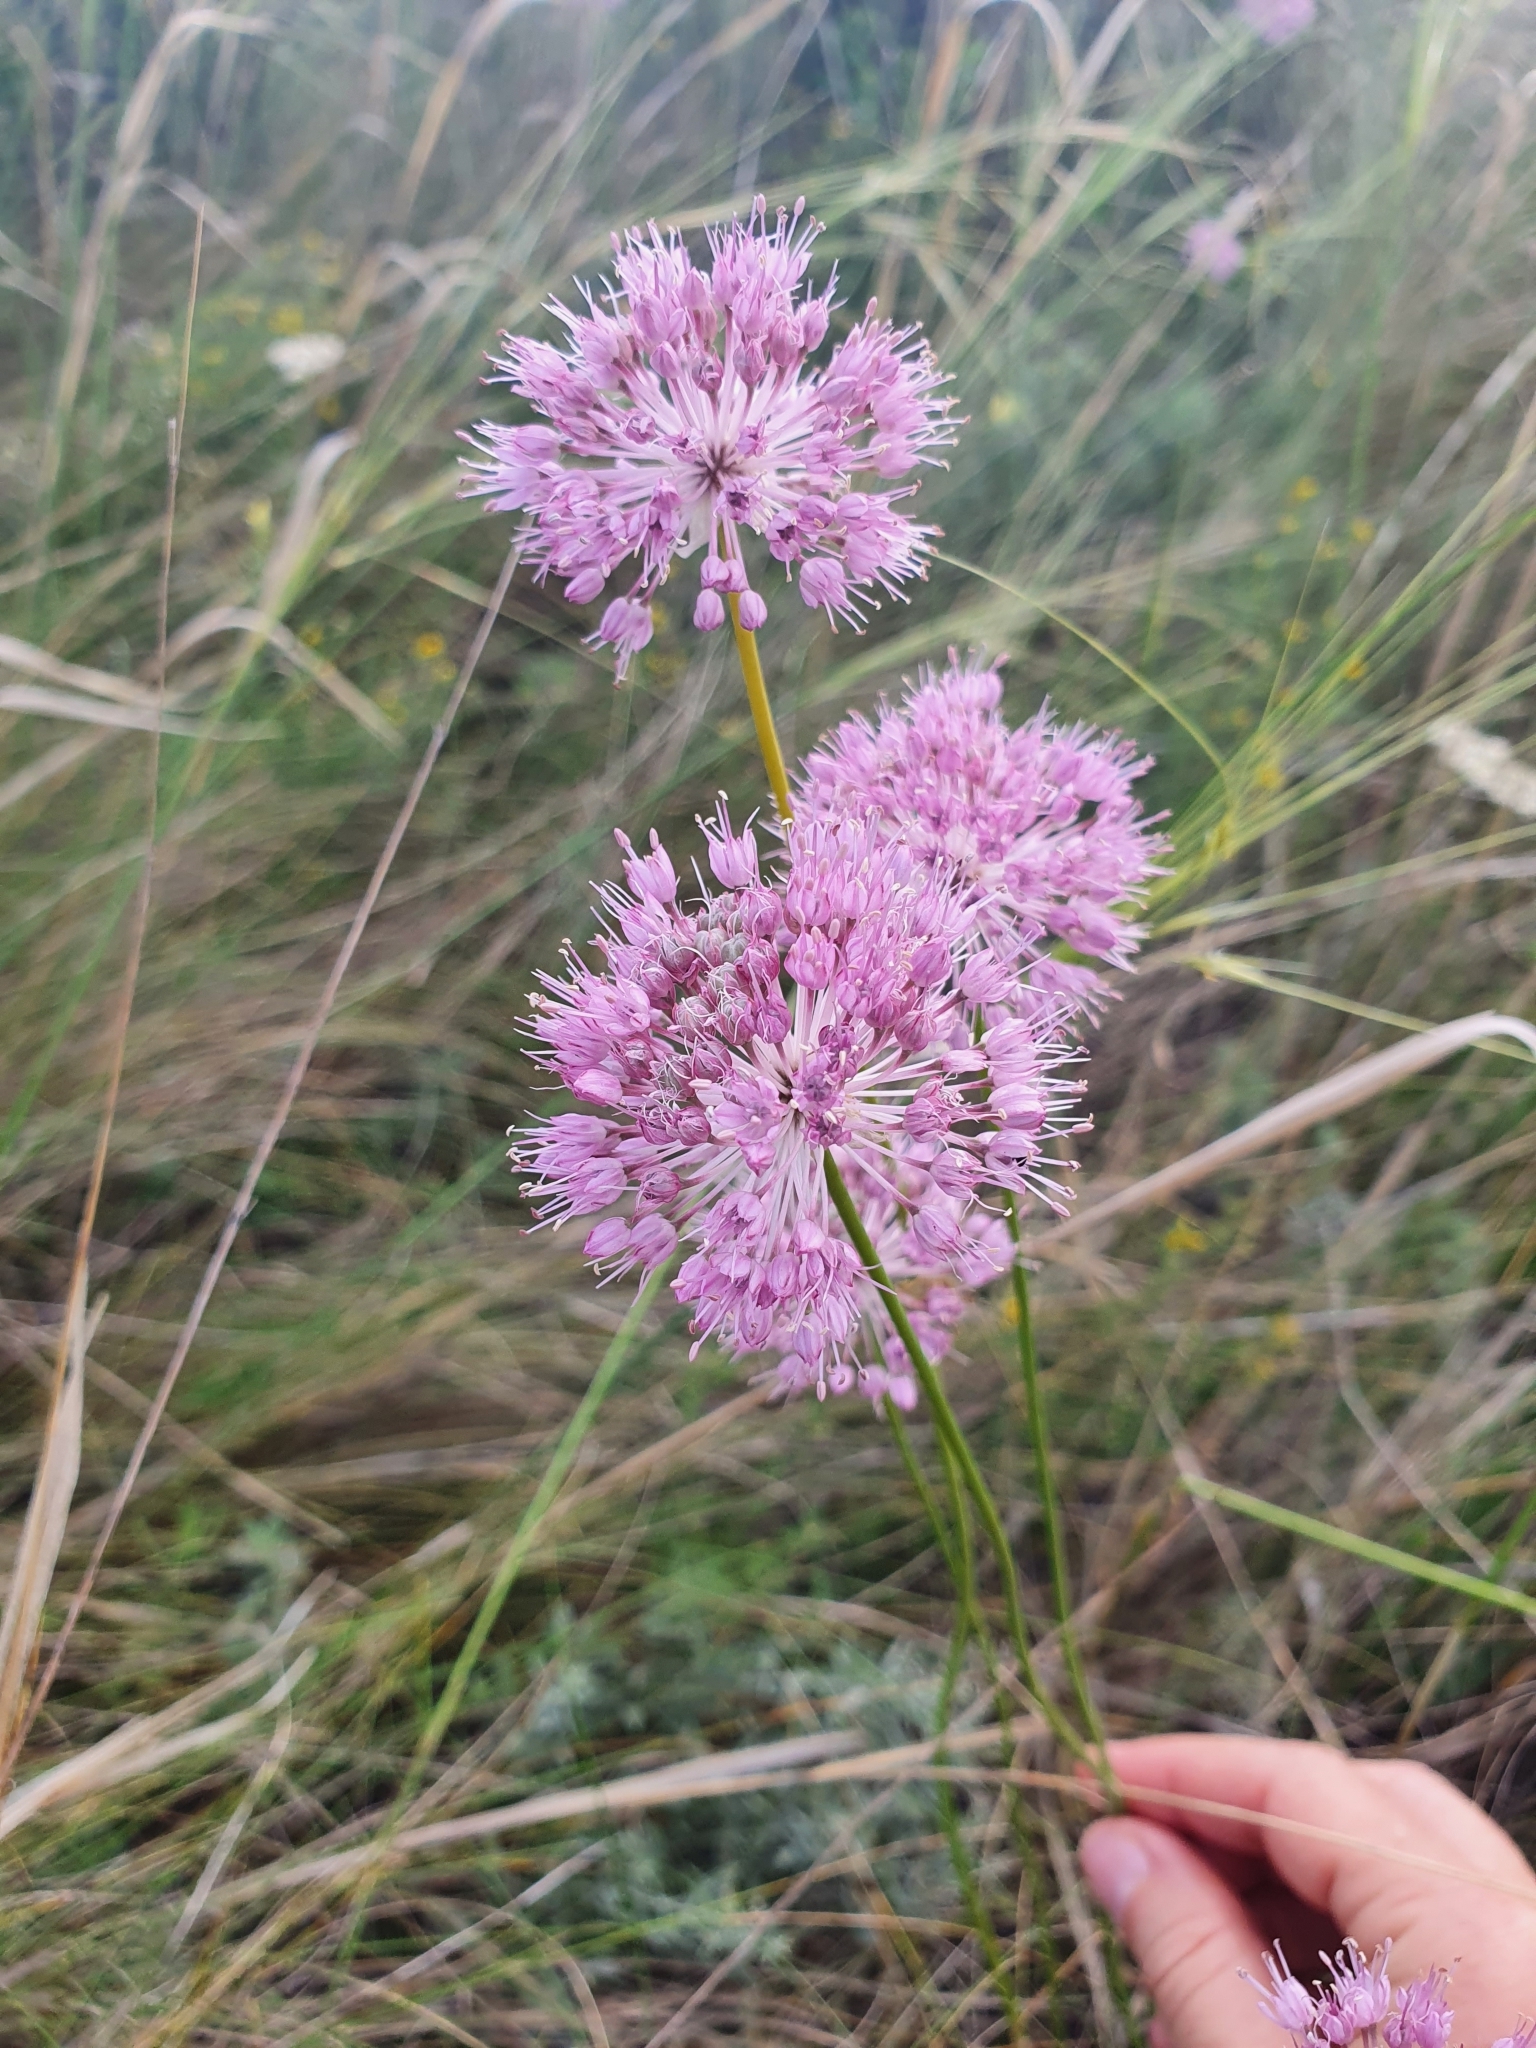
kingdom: Plantae
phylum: Tracheophyta
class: Liliopsida
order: Asparagales
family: Amaryllidaceae
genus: Allium
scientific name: Allium lineare
